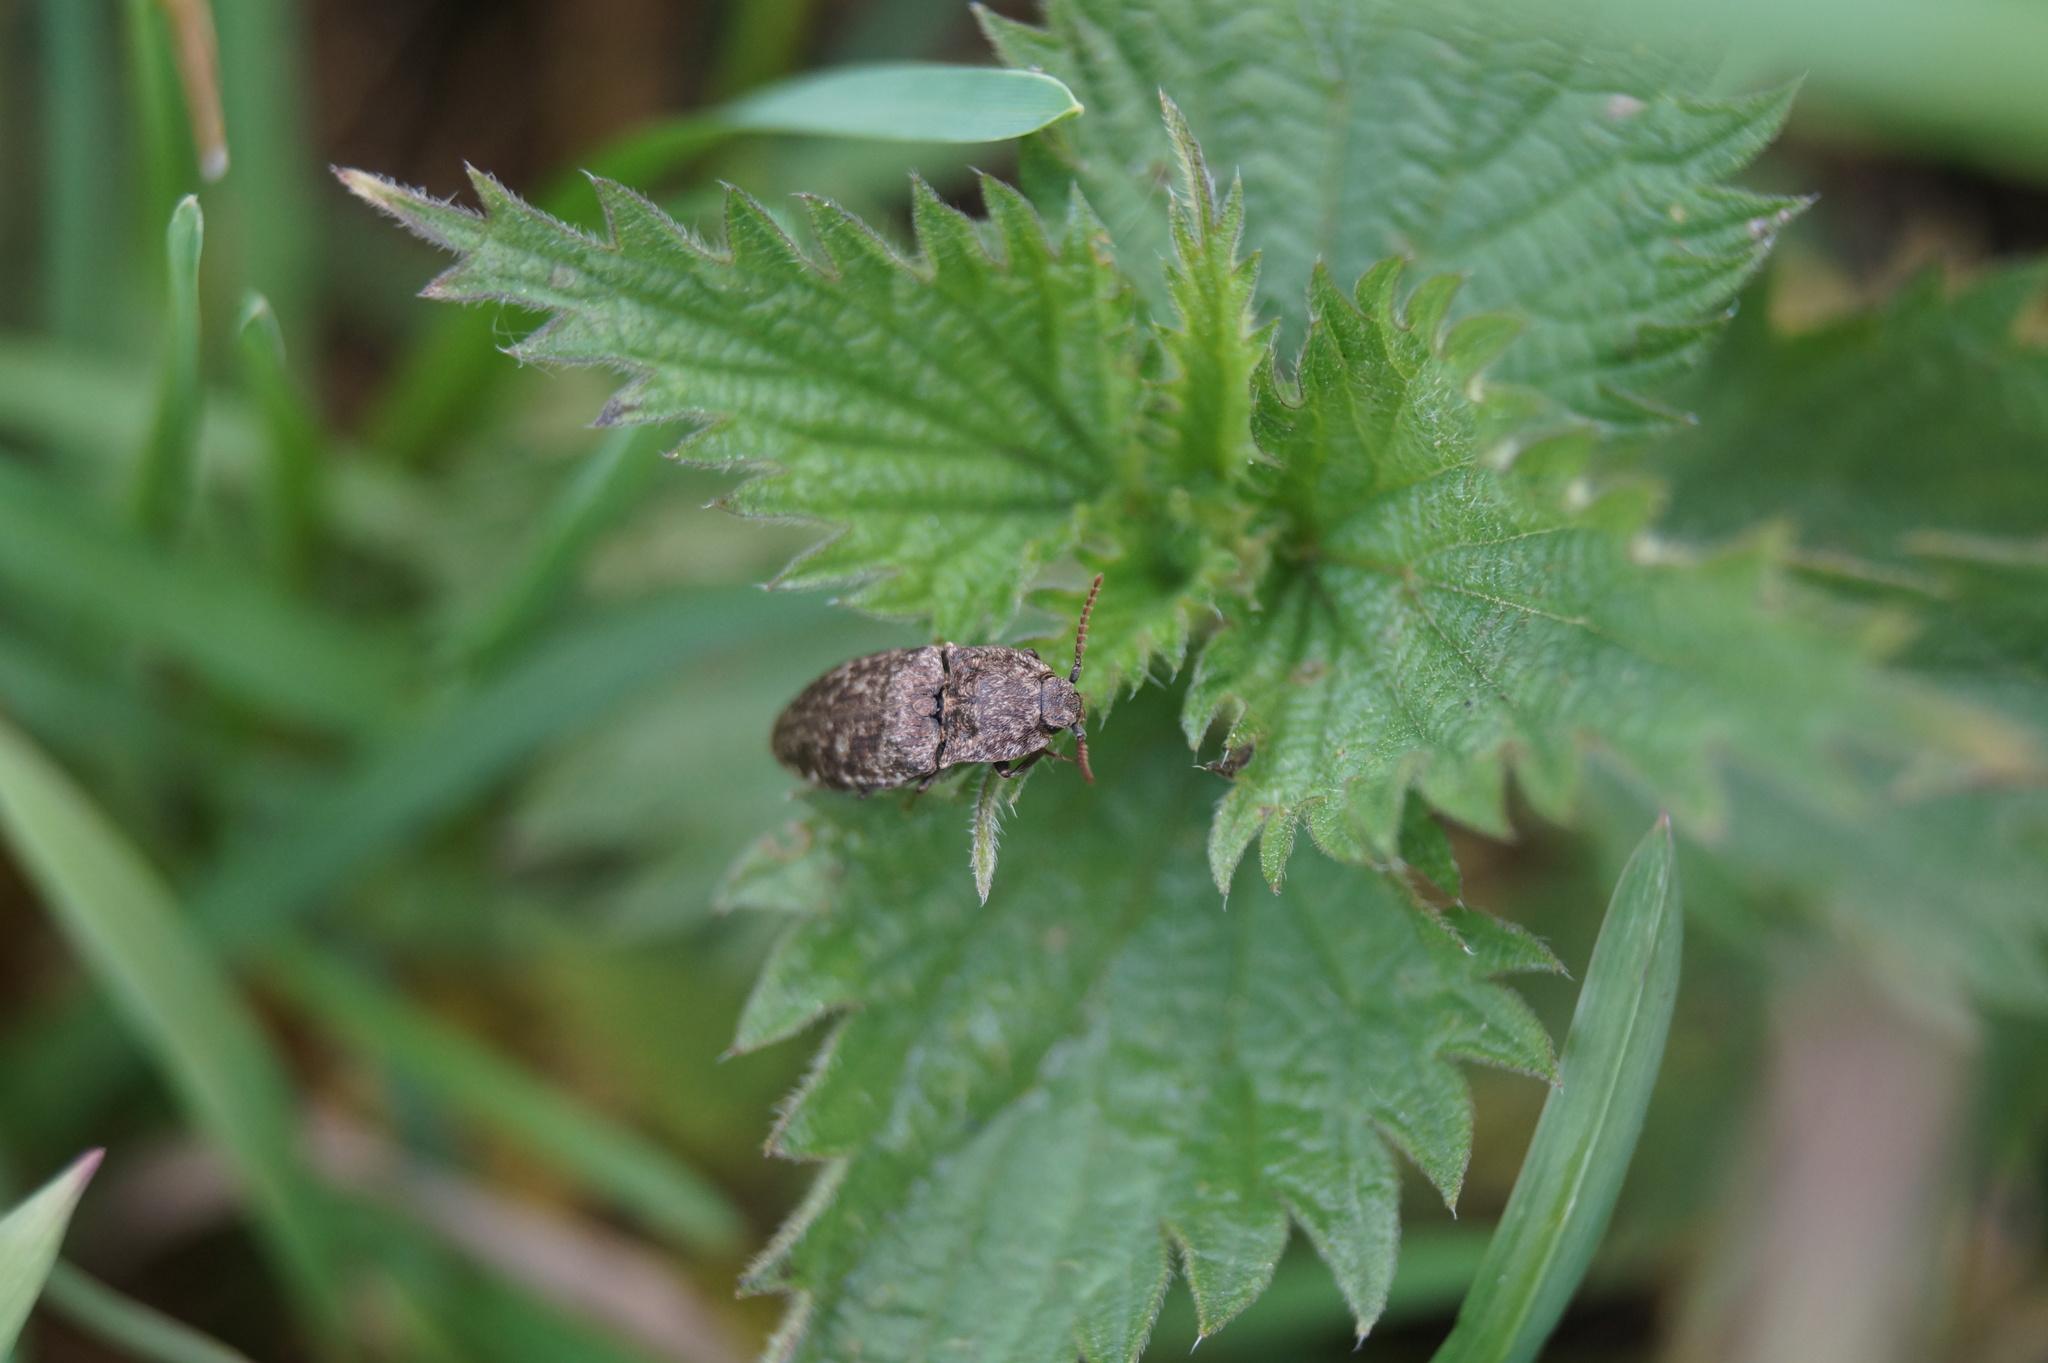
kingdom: Animalia
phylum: Arthropoda
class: Insecta
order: Coleoptera
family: Elateridae
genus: Agrypnus
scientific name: Agrypnus murinus
